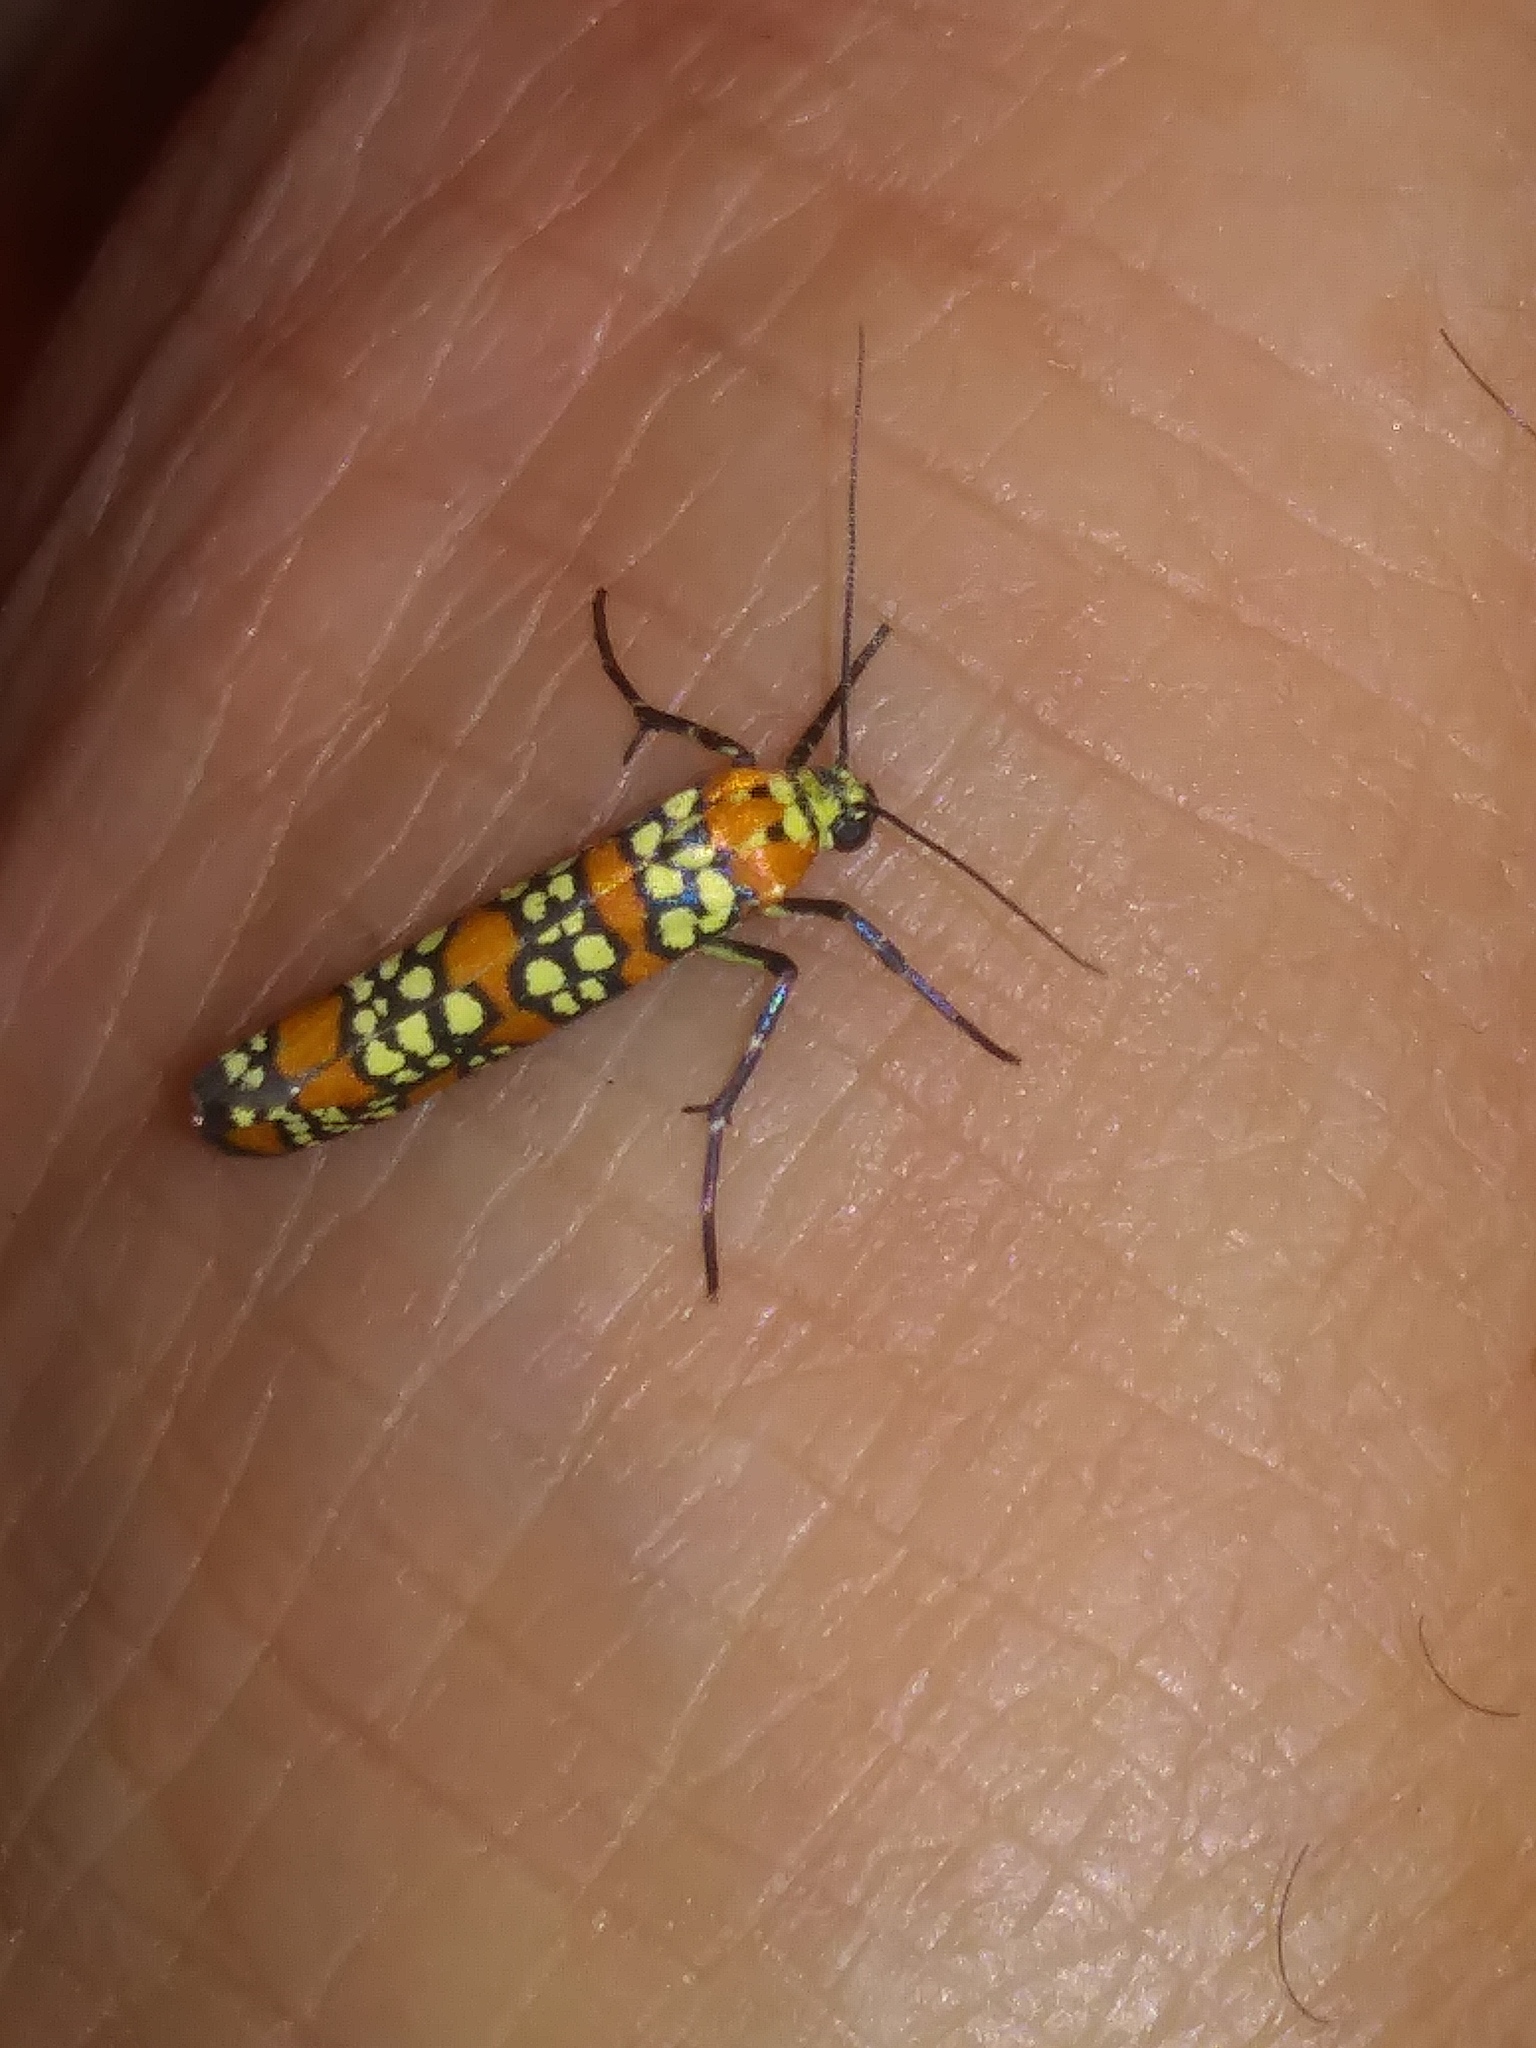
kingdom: Animalia
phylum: Arthropoda
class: Insecta
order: Lepidoptera
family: Attevidae
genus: Atteva
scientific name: Atteva punctella
